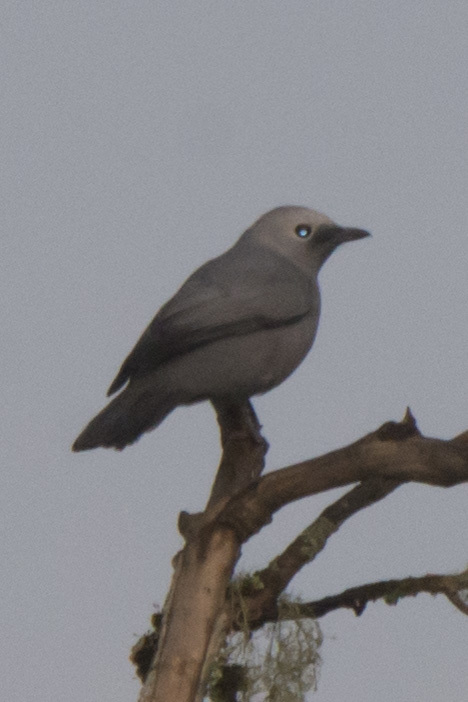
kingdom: Animalia
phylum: Chordata
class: Aves
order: Passeriformes
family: Campephagidae
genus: Coracina
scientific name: Coracina caesia
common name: Grey cuckooshrike
